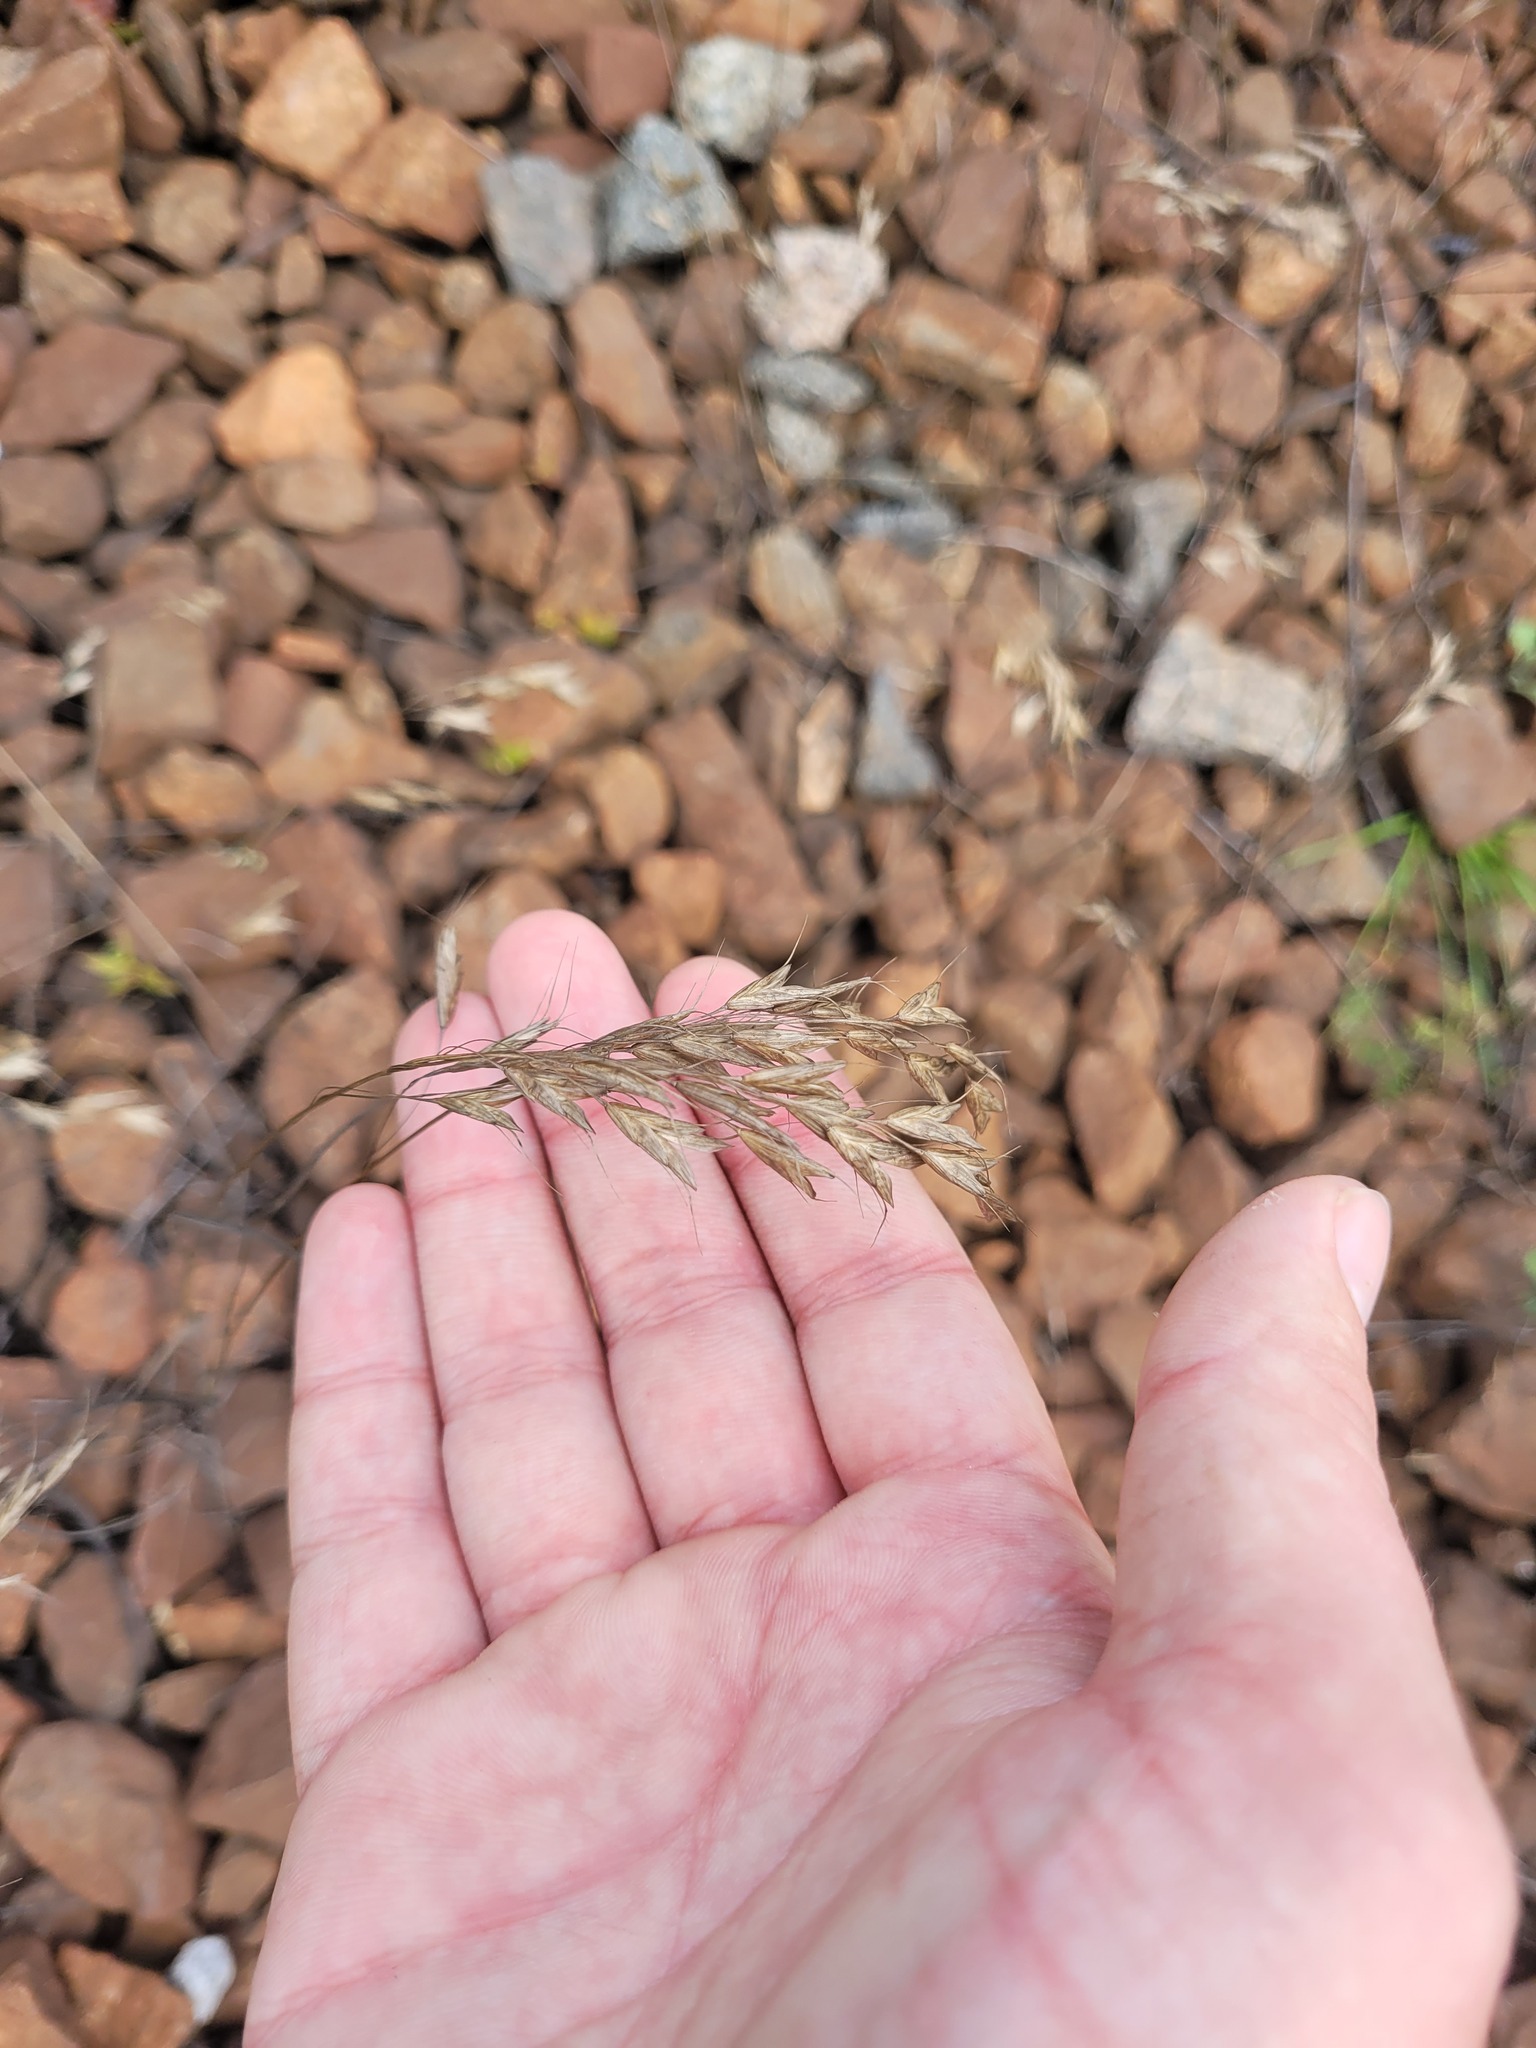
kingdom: Plantae
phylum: Tracheophyta
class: Liliopsida
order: Poales
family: Poaceae
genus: Bromus
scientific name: Bromus japonicus
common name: Japanese brome
